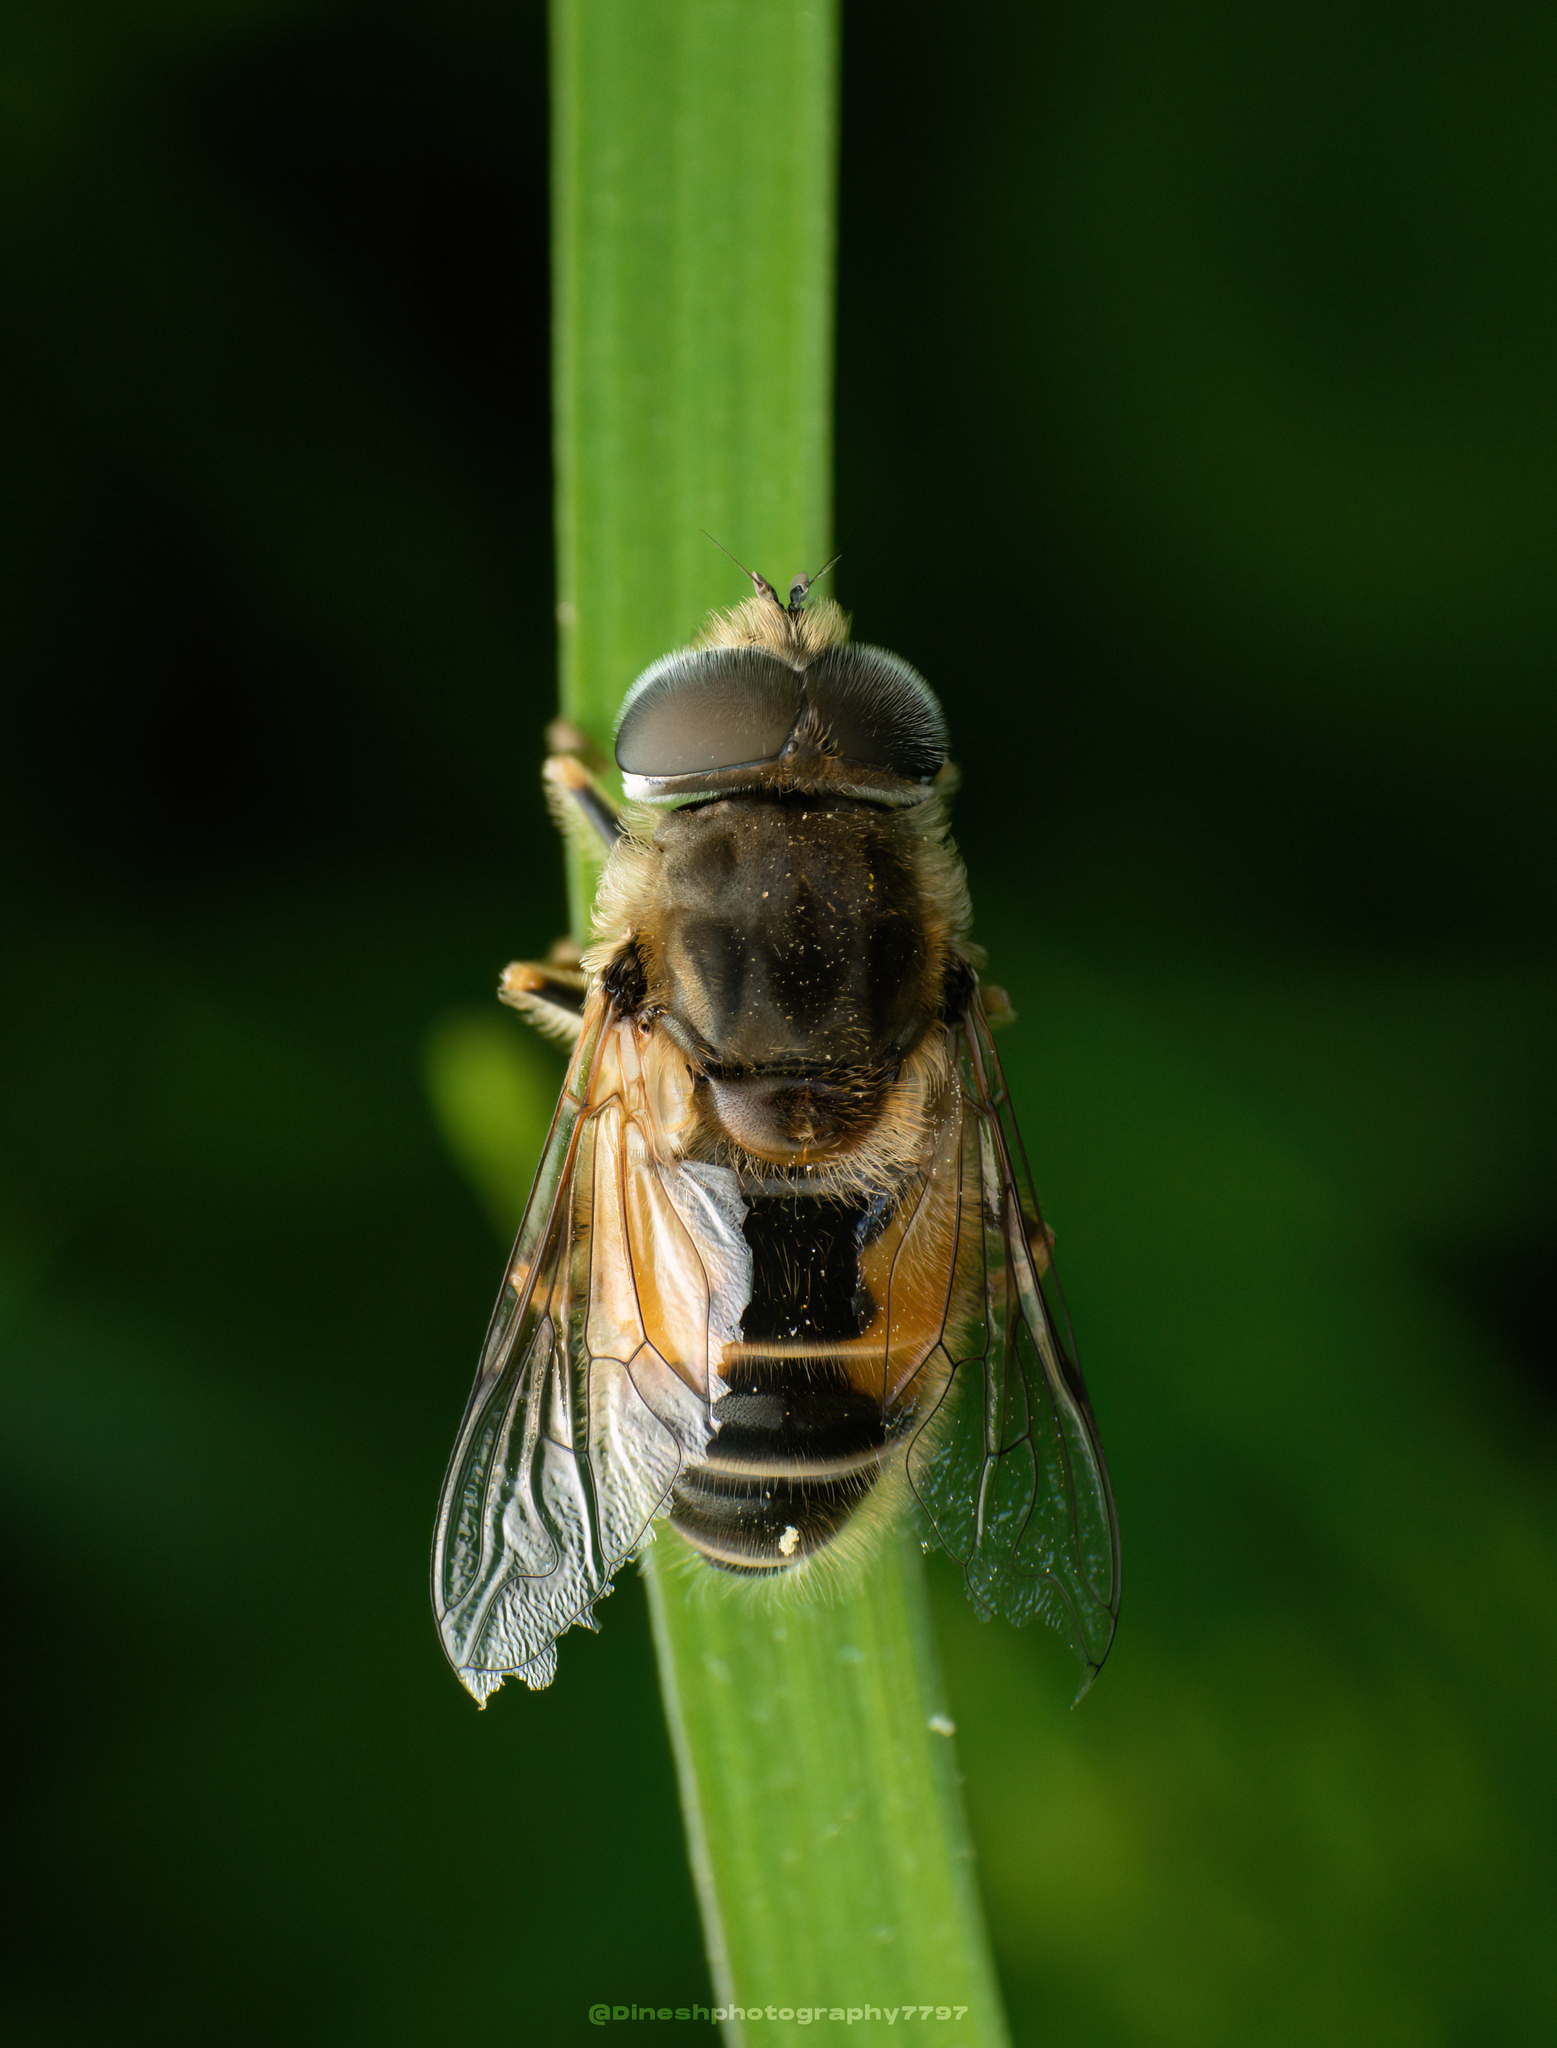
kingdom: Animalia
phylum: Arthropoda
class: Insecta
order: Diptera
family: Syrphidae
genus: Eristalis
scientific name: Eristalis arbustorum
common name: Hover fly
